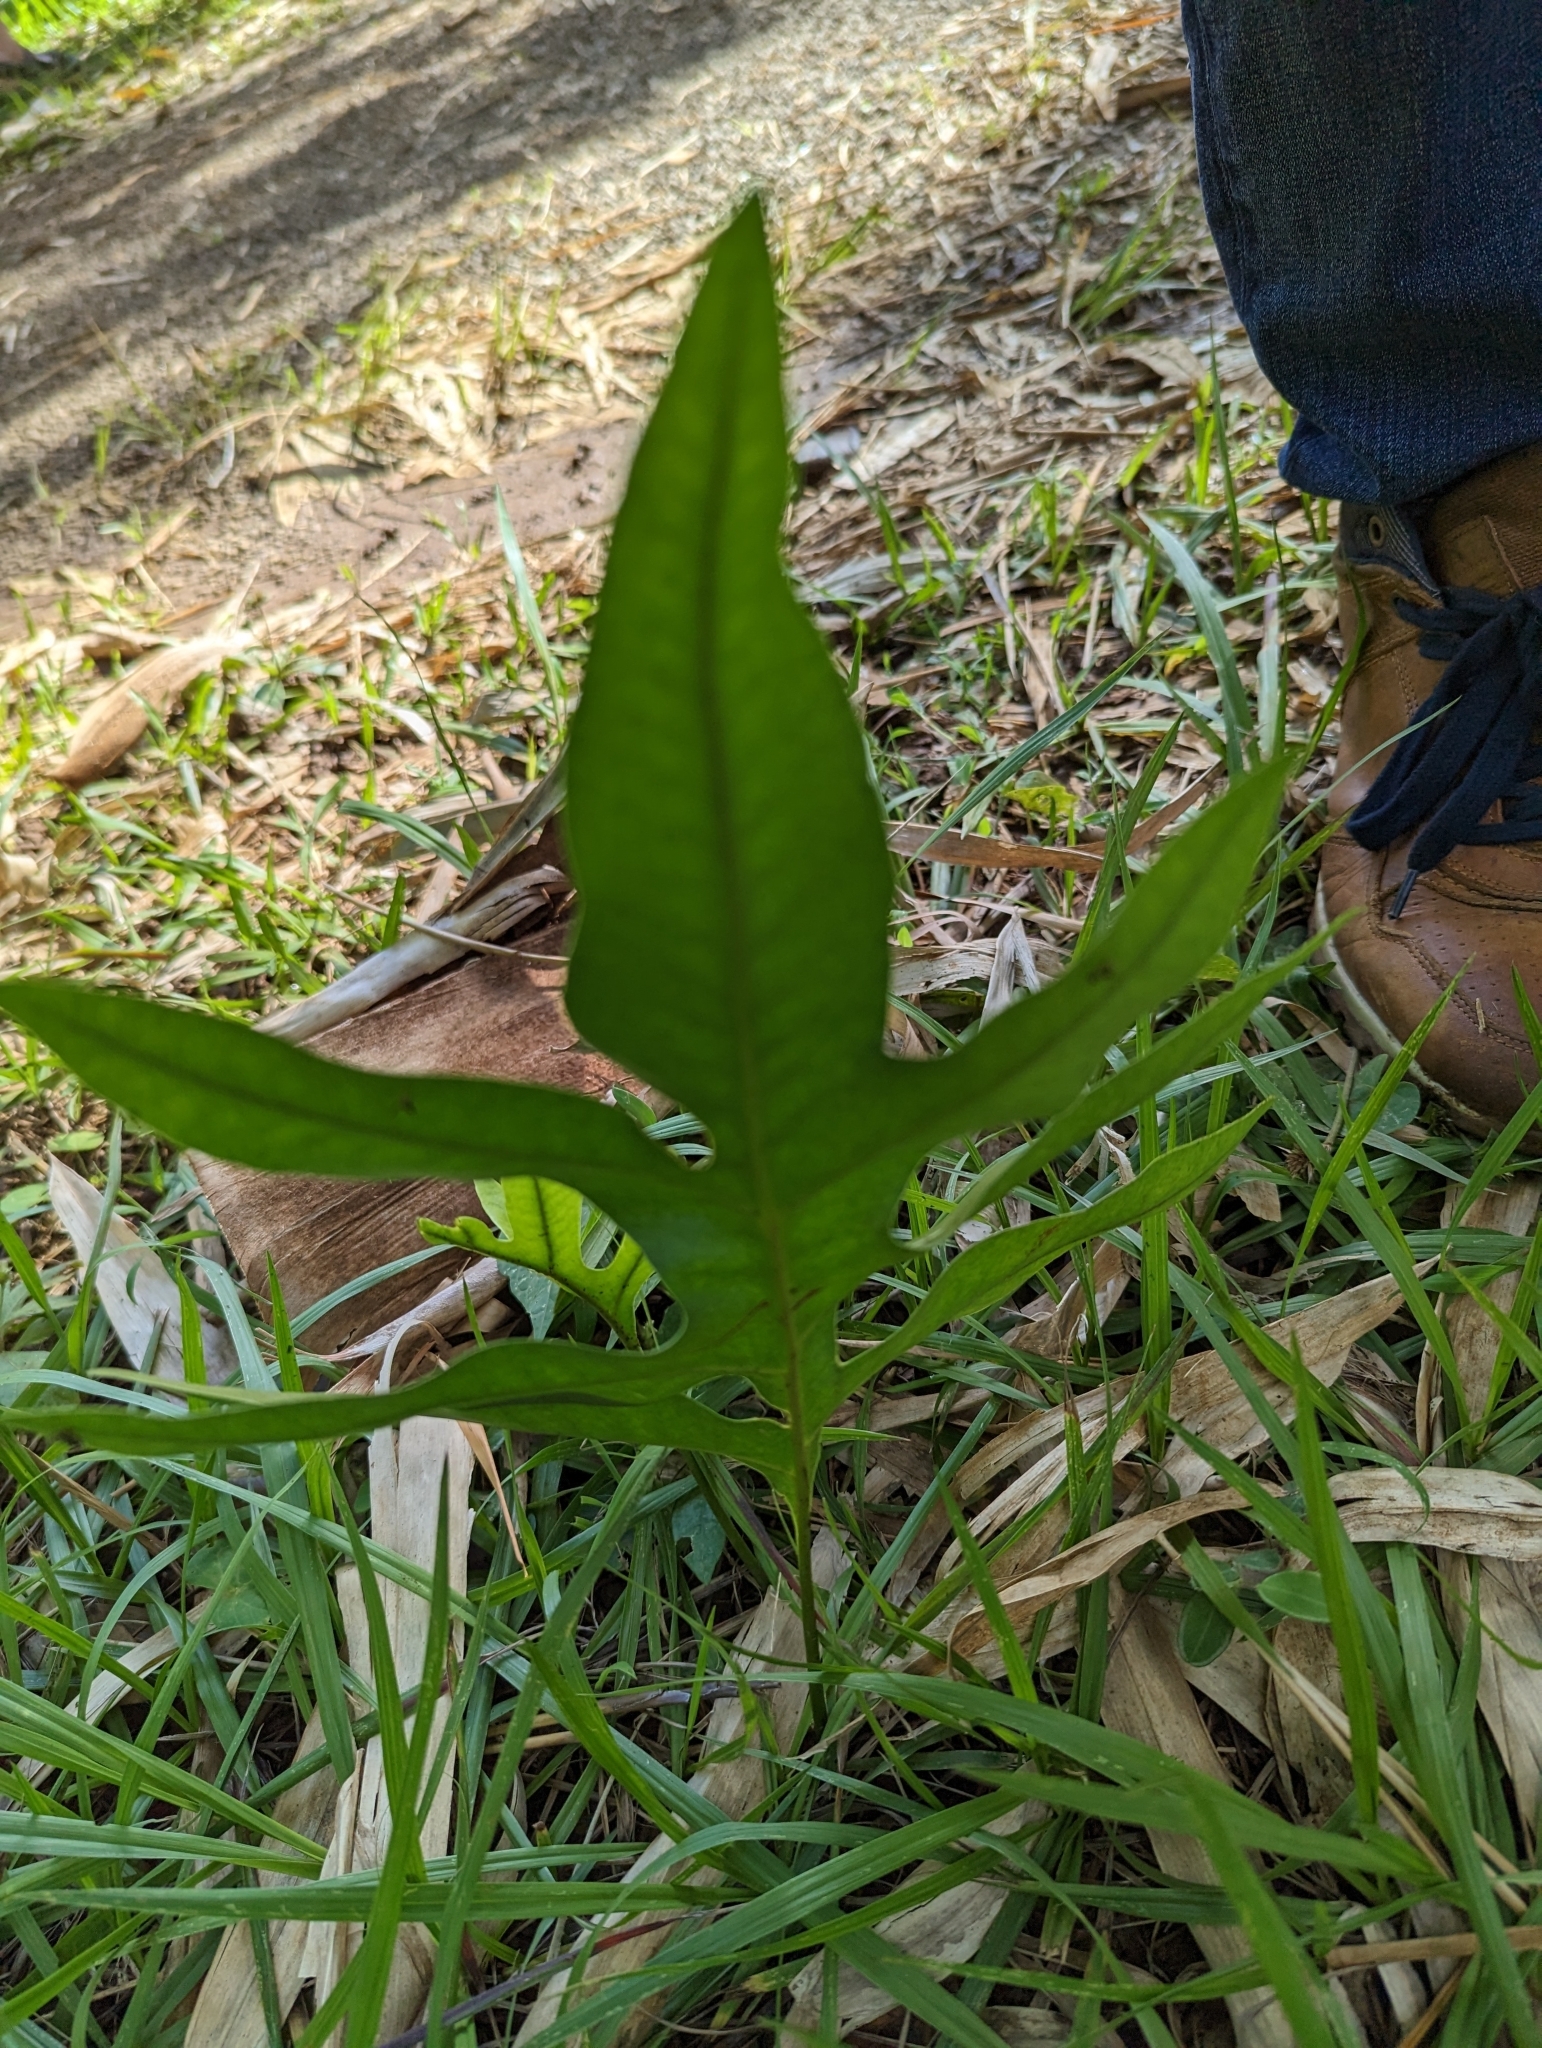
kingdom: Plantae
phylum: Tracheophyta
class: Polypodiopsida
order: Polypodiales
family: Polypodiaceae
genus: Microsorum
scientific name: Microsorum grossum
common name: Musk fern
